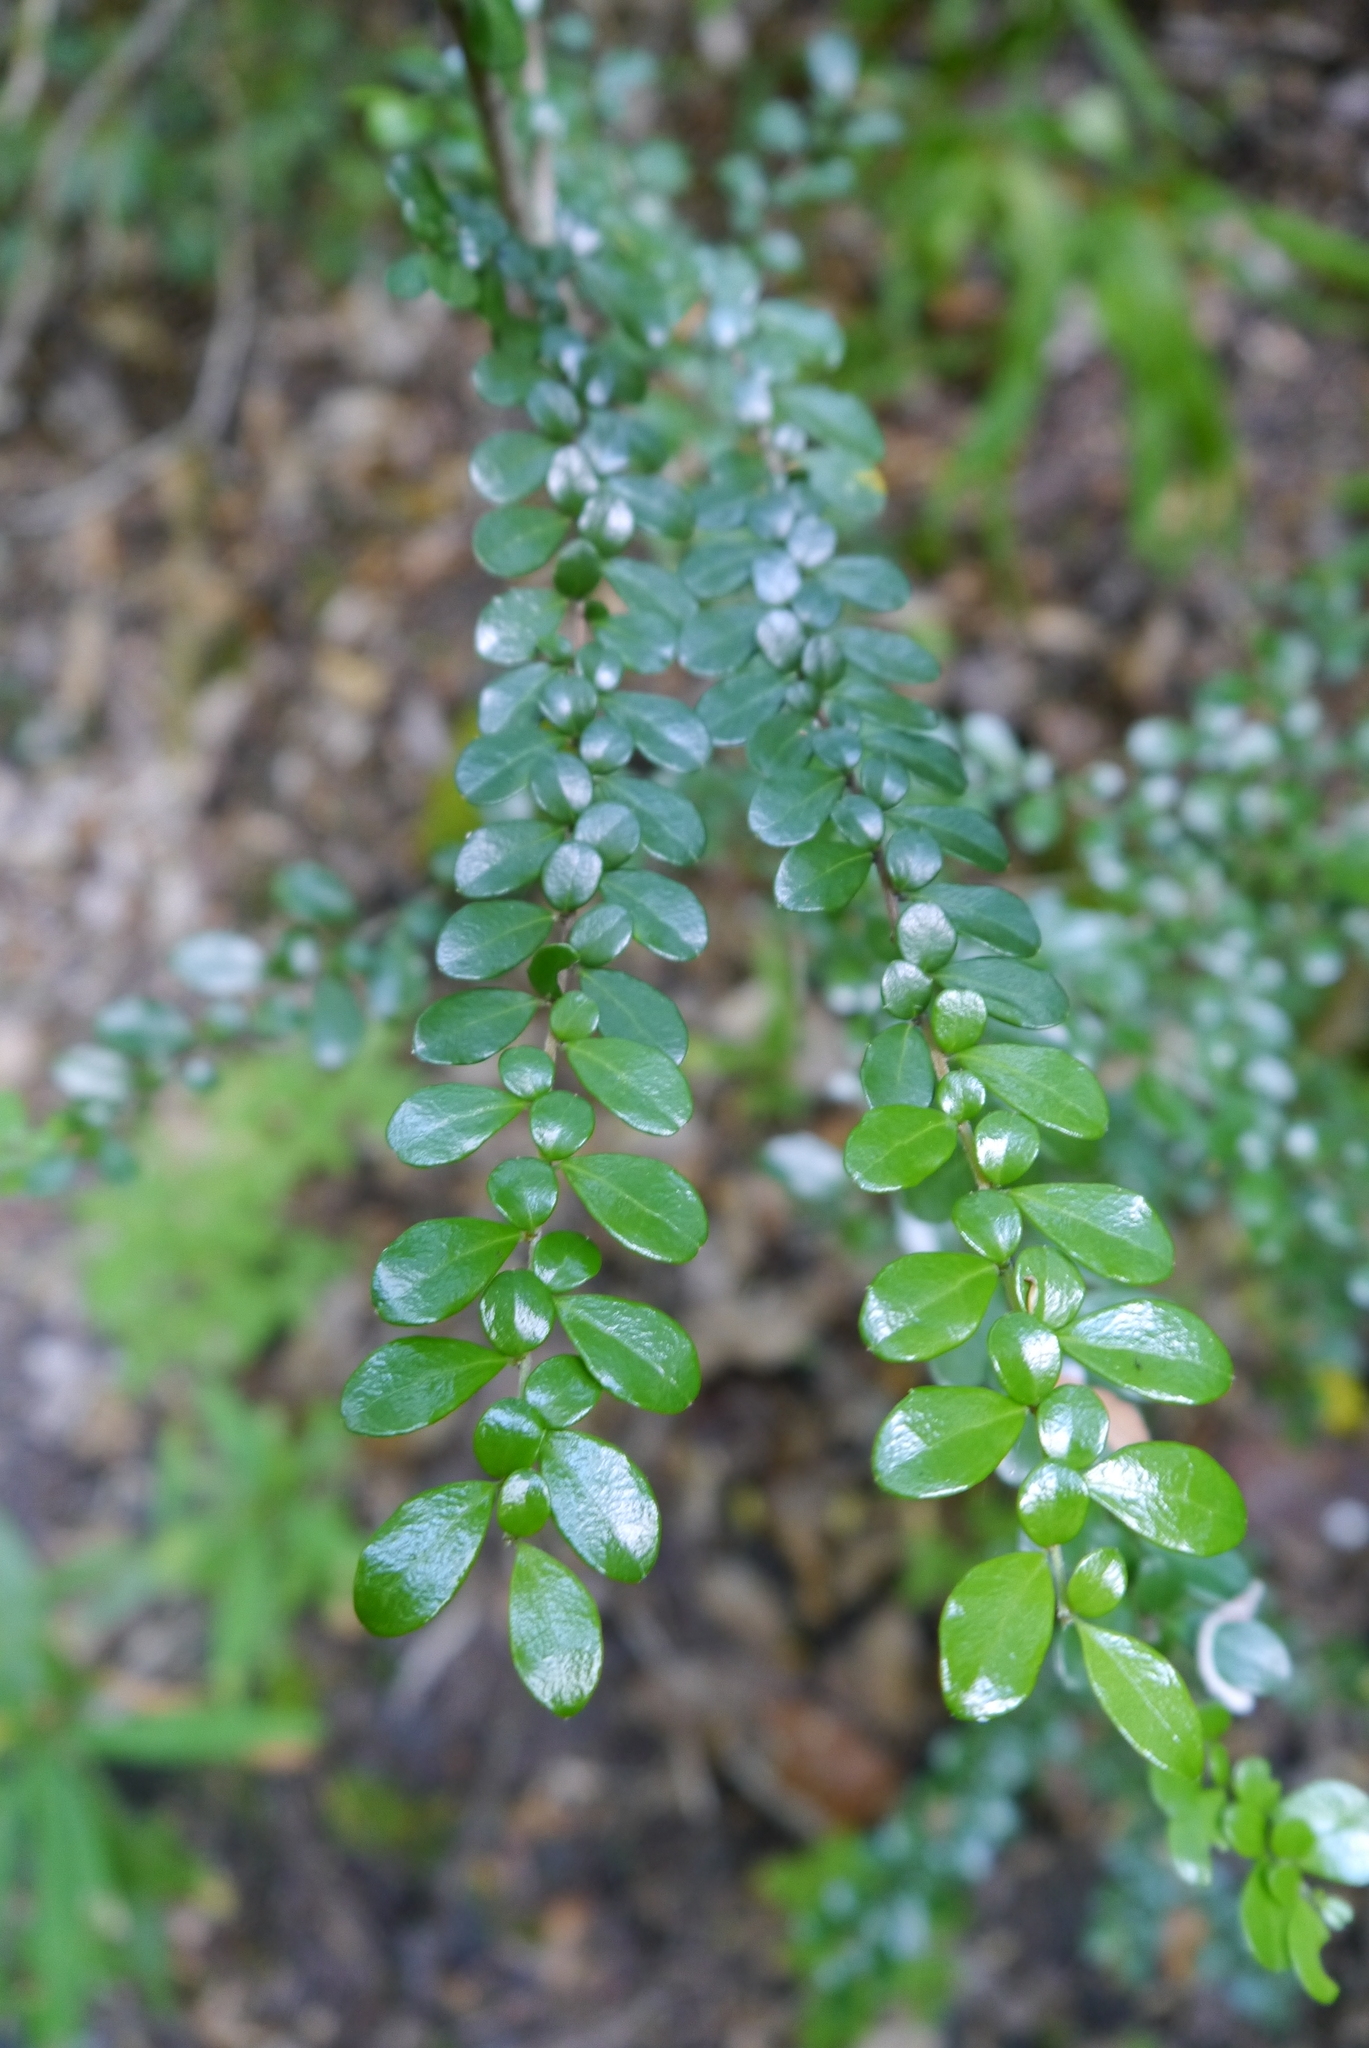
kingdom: Plantae
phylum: Tracheophyta
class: Magnoliopsida
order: Malpighiales
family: Salicaceae
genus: Azara
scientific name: Azara microphylla
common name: Box-leaf azara
